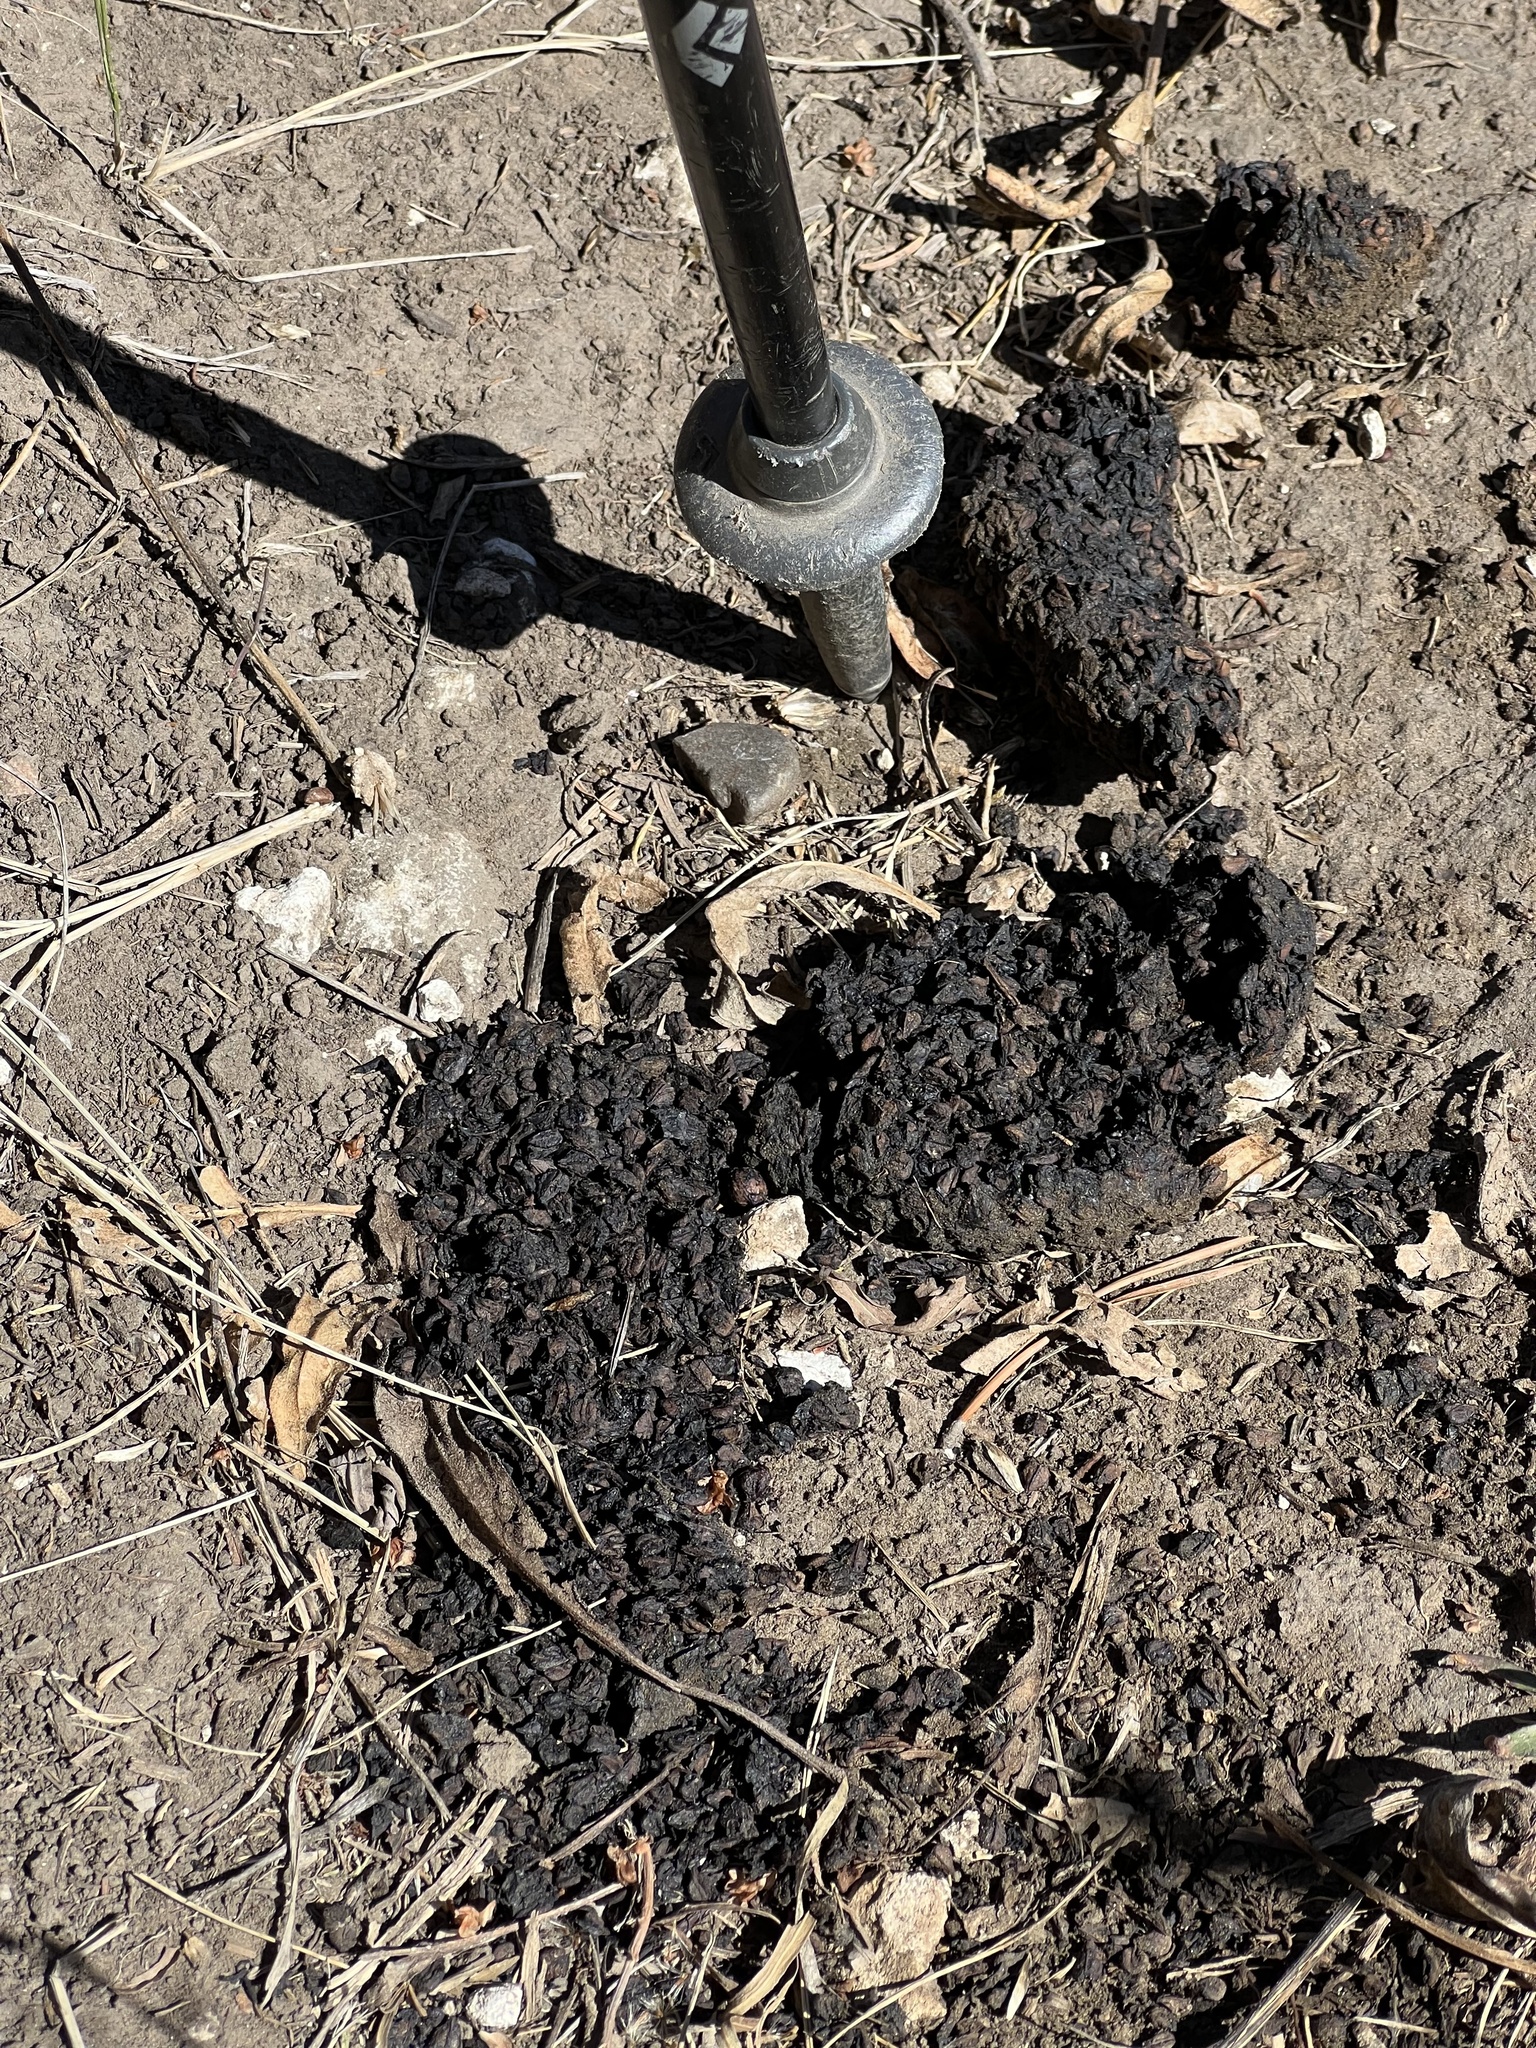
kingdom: Animalia
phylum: Chordata
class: Mammalia
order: Carnivora
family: Ursidae
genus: Ursus
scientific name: Ursus
